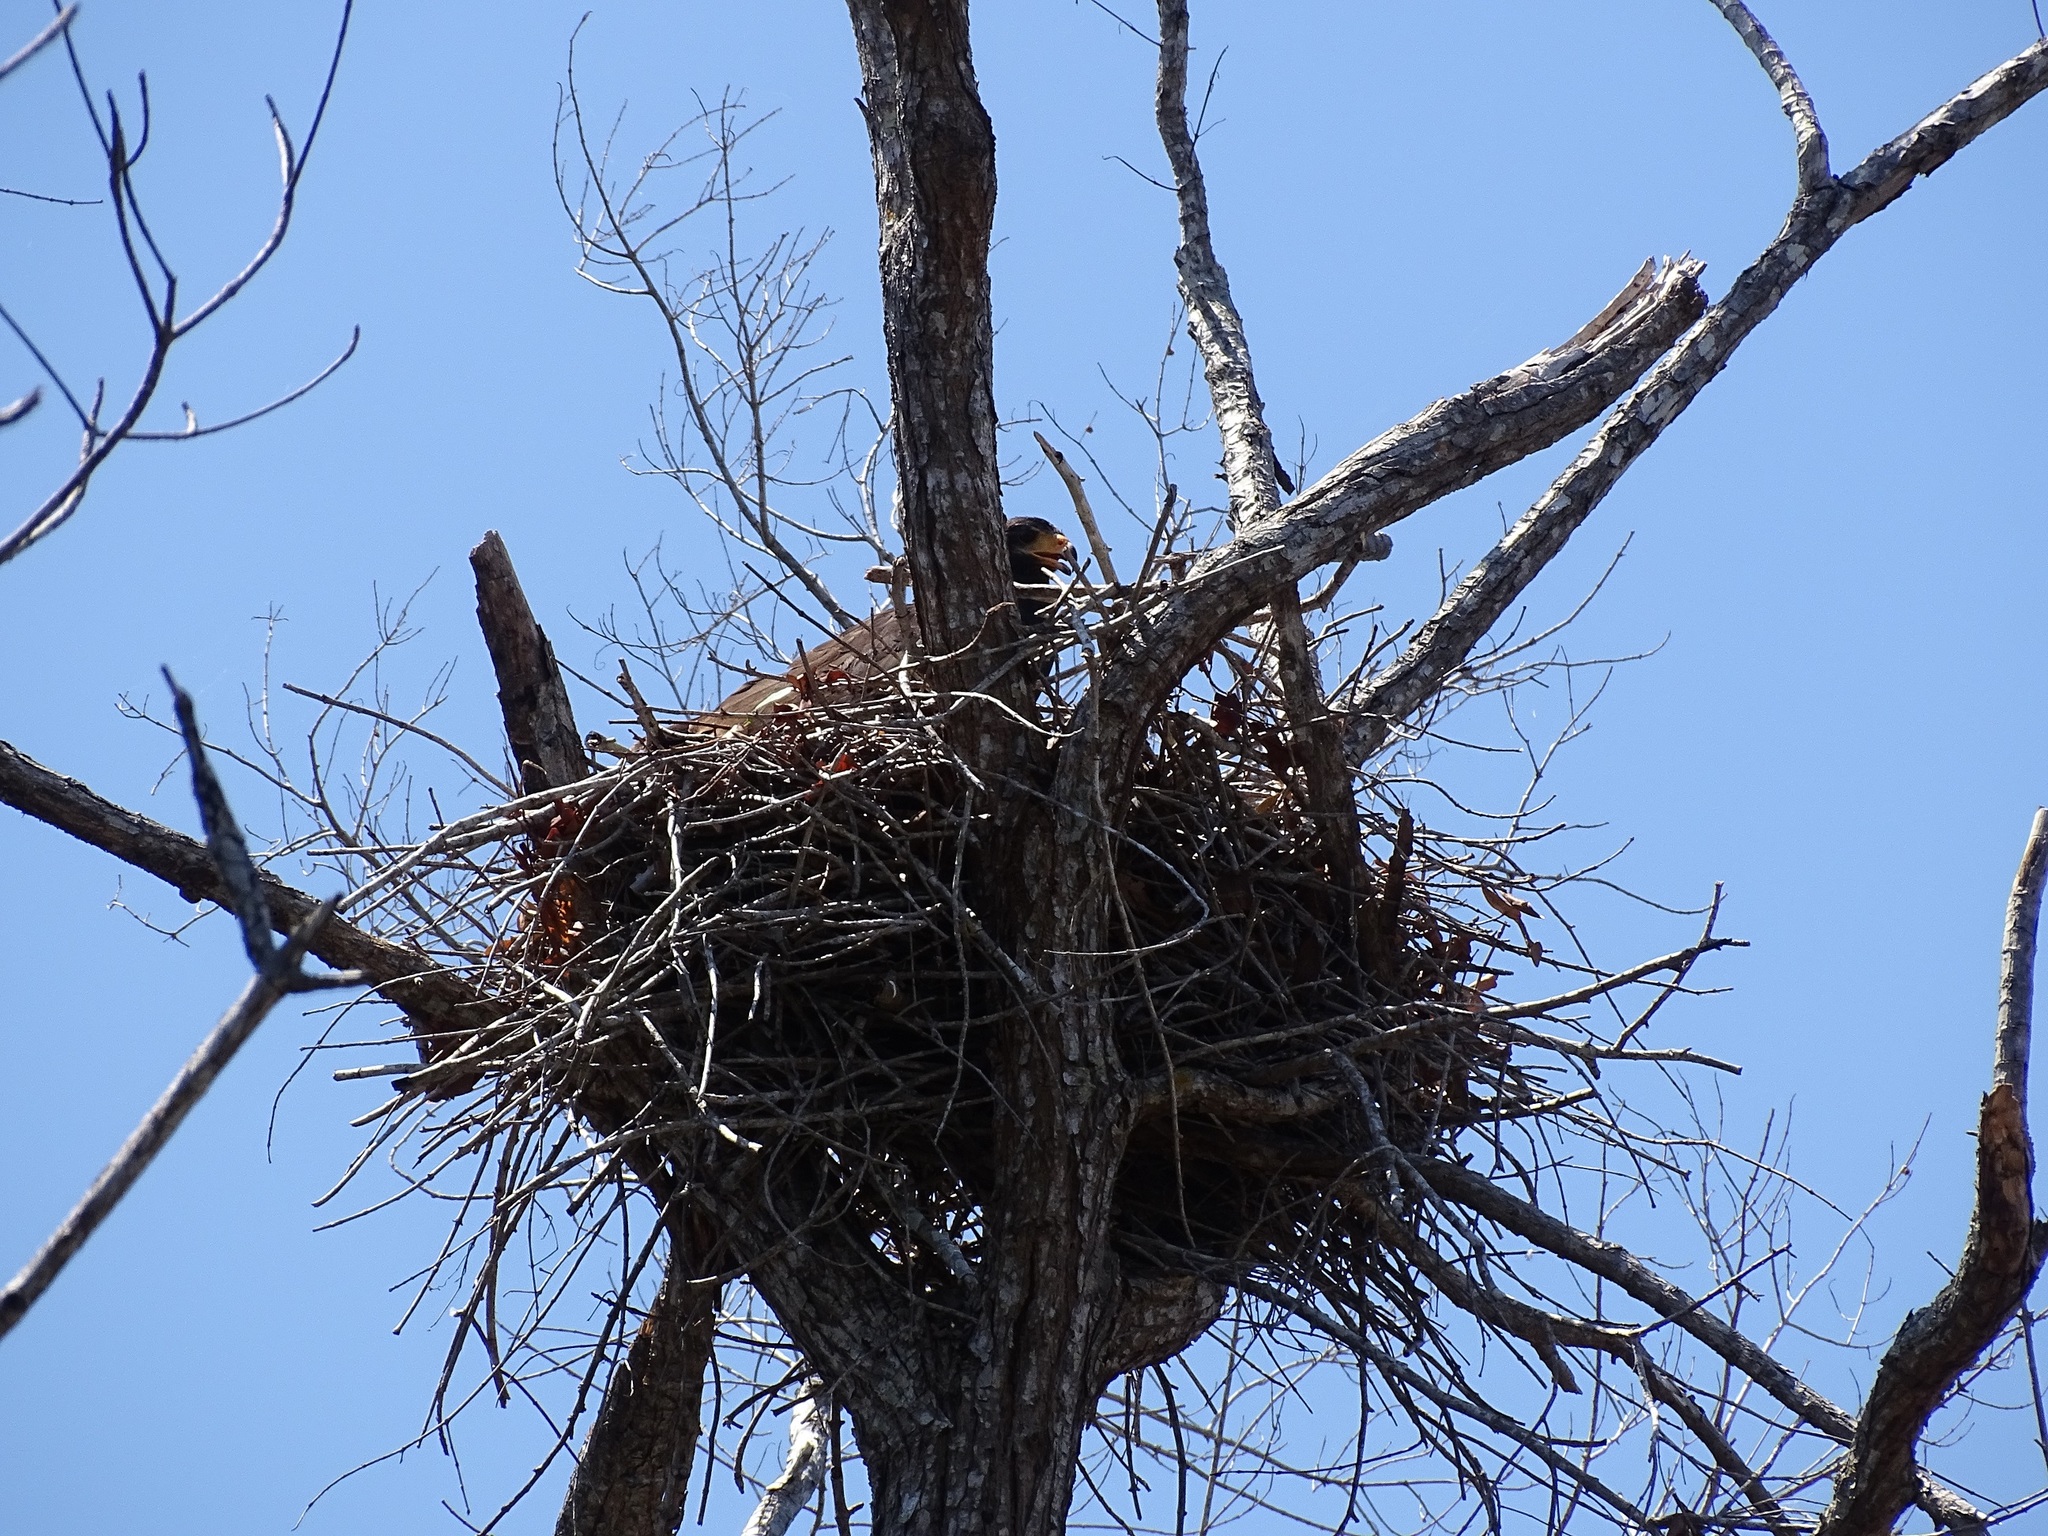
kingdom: Animalia
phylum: Chordata
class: Aves
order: Accipitriformes
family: Accipitridae
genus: Buteogallus
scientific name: Buteogallus anthracinus
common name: Common black hawk
